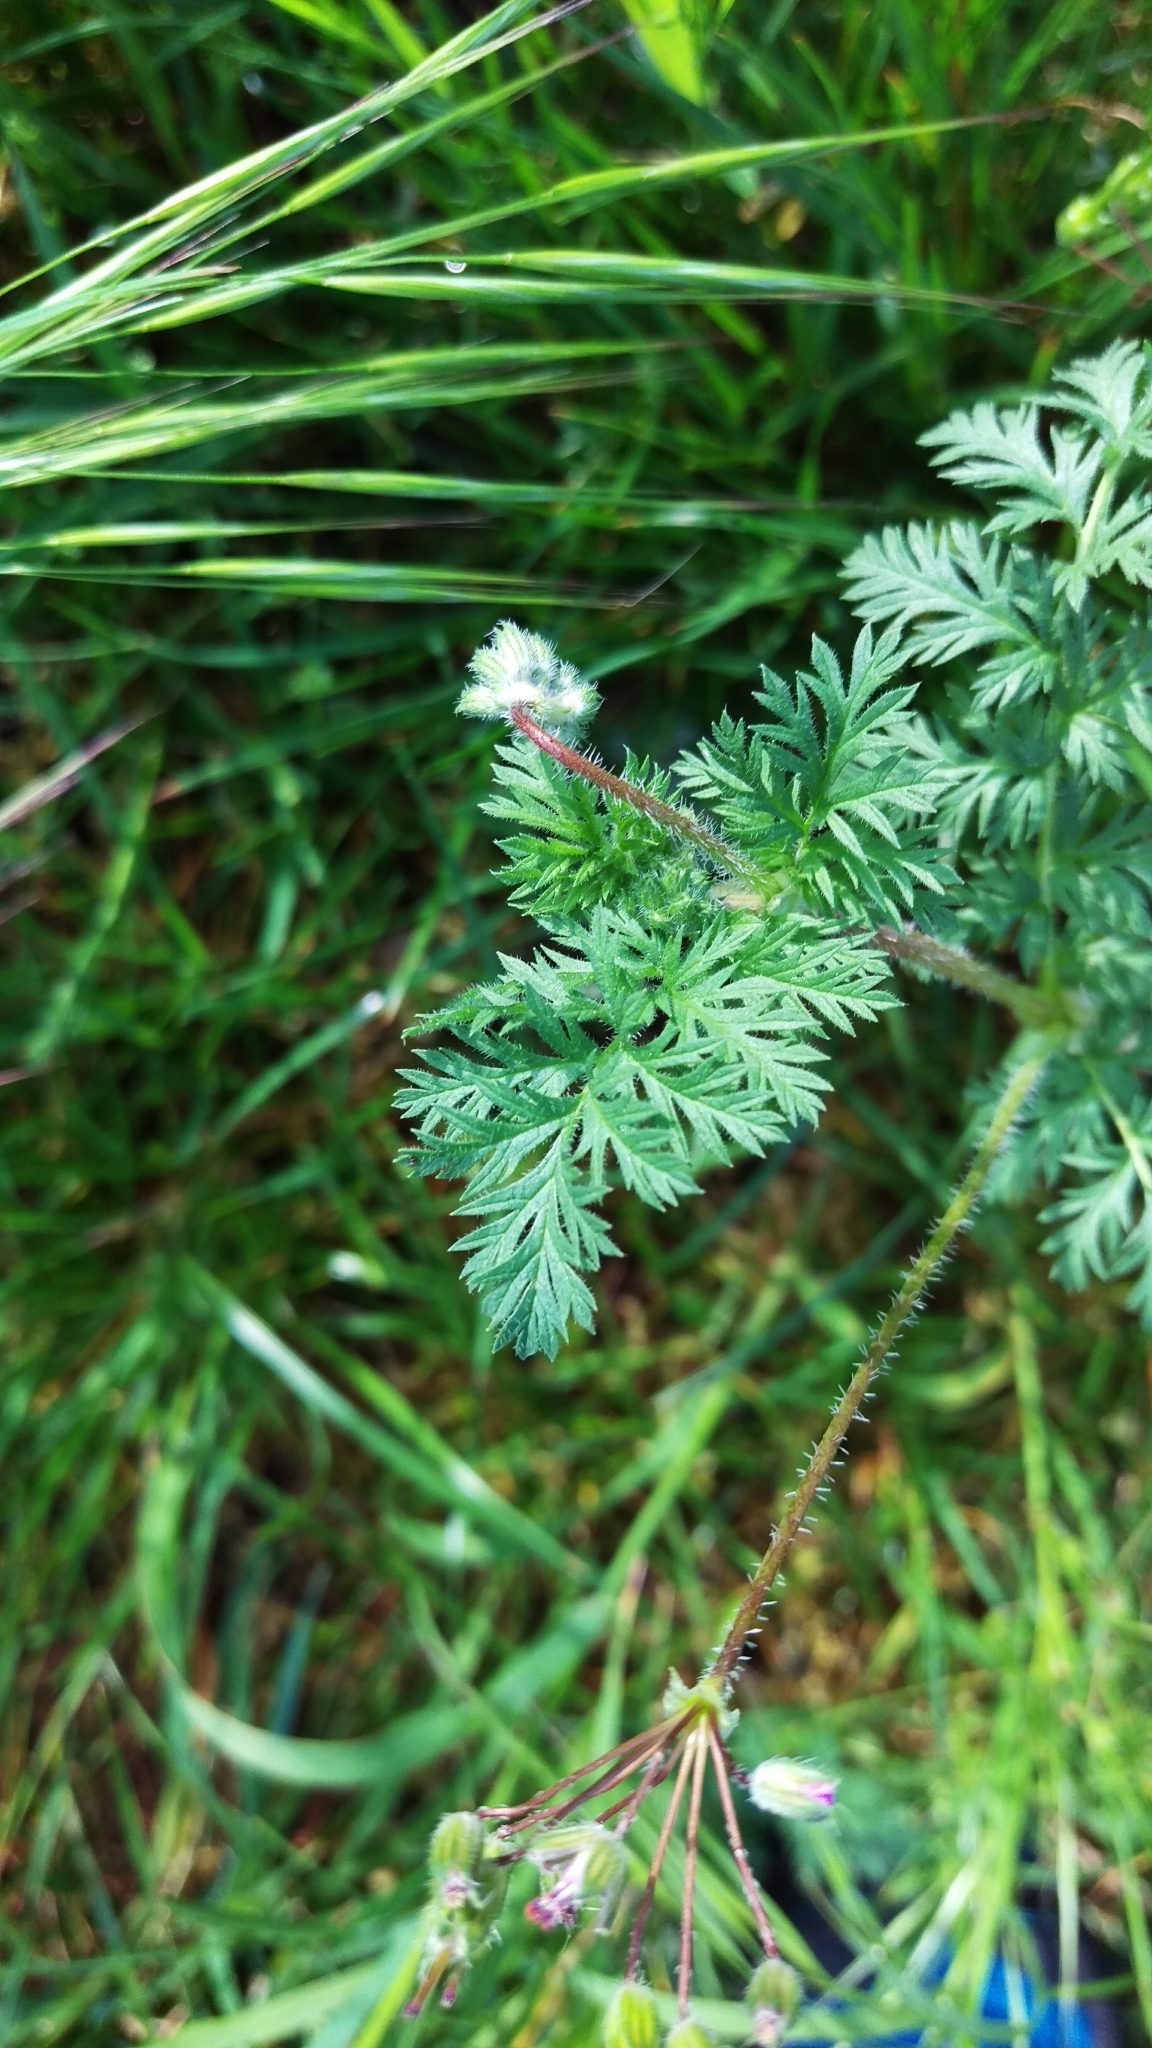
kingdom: Plantae
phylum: Tracheophyta
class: Magnoliopsida
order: Geraniales
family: Geraniaceae
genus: Erodium
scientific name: Erodium cicutarium
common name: Common stork's-bill
